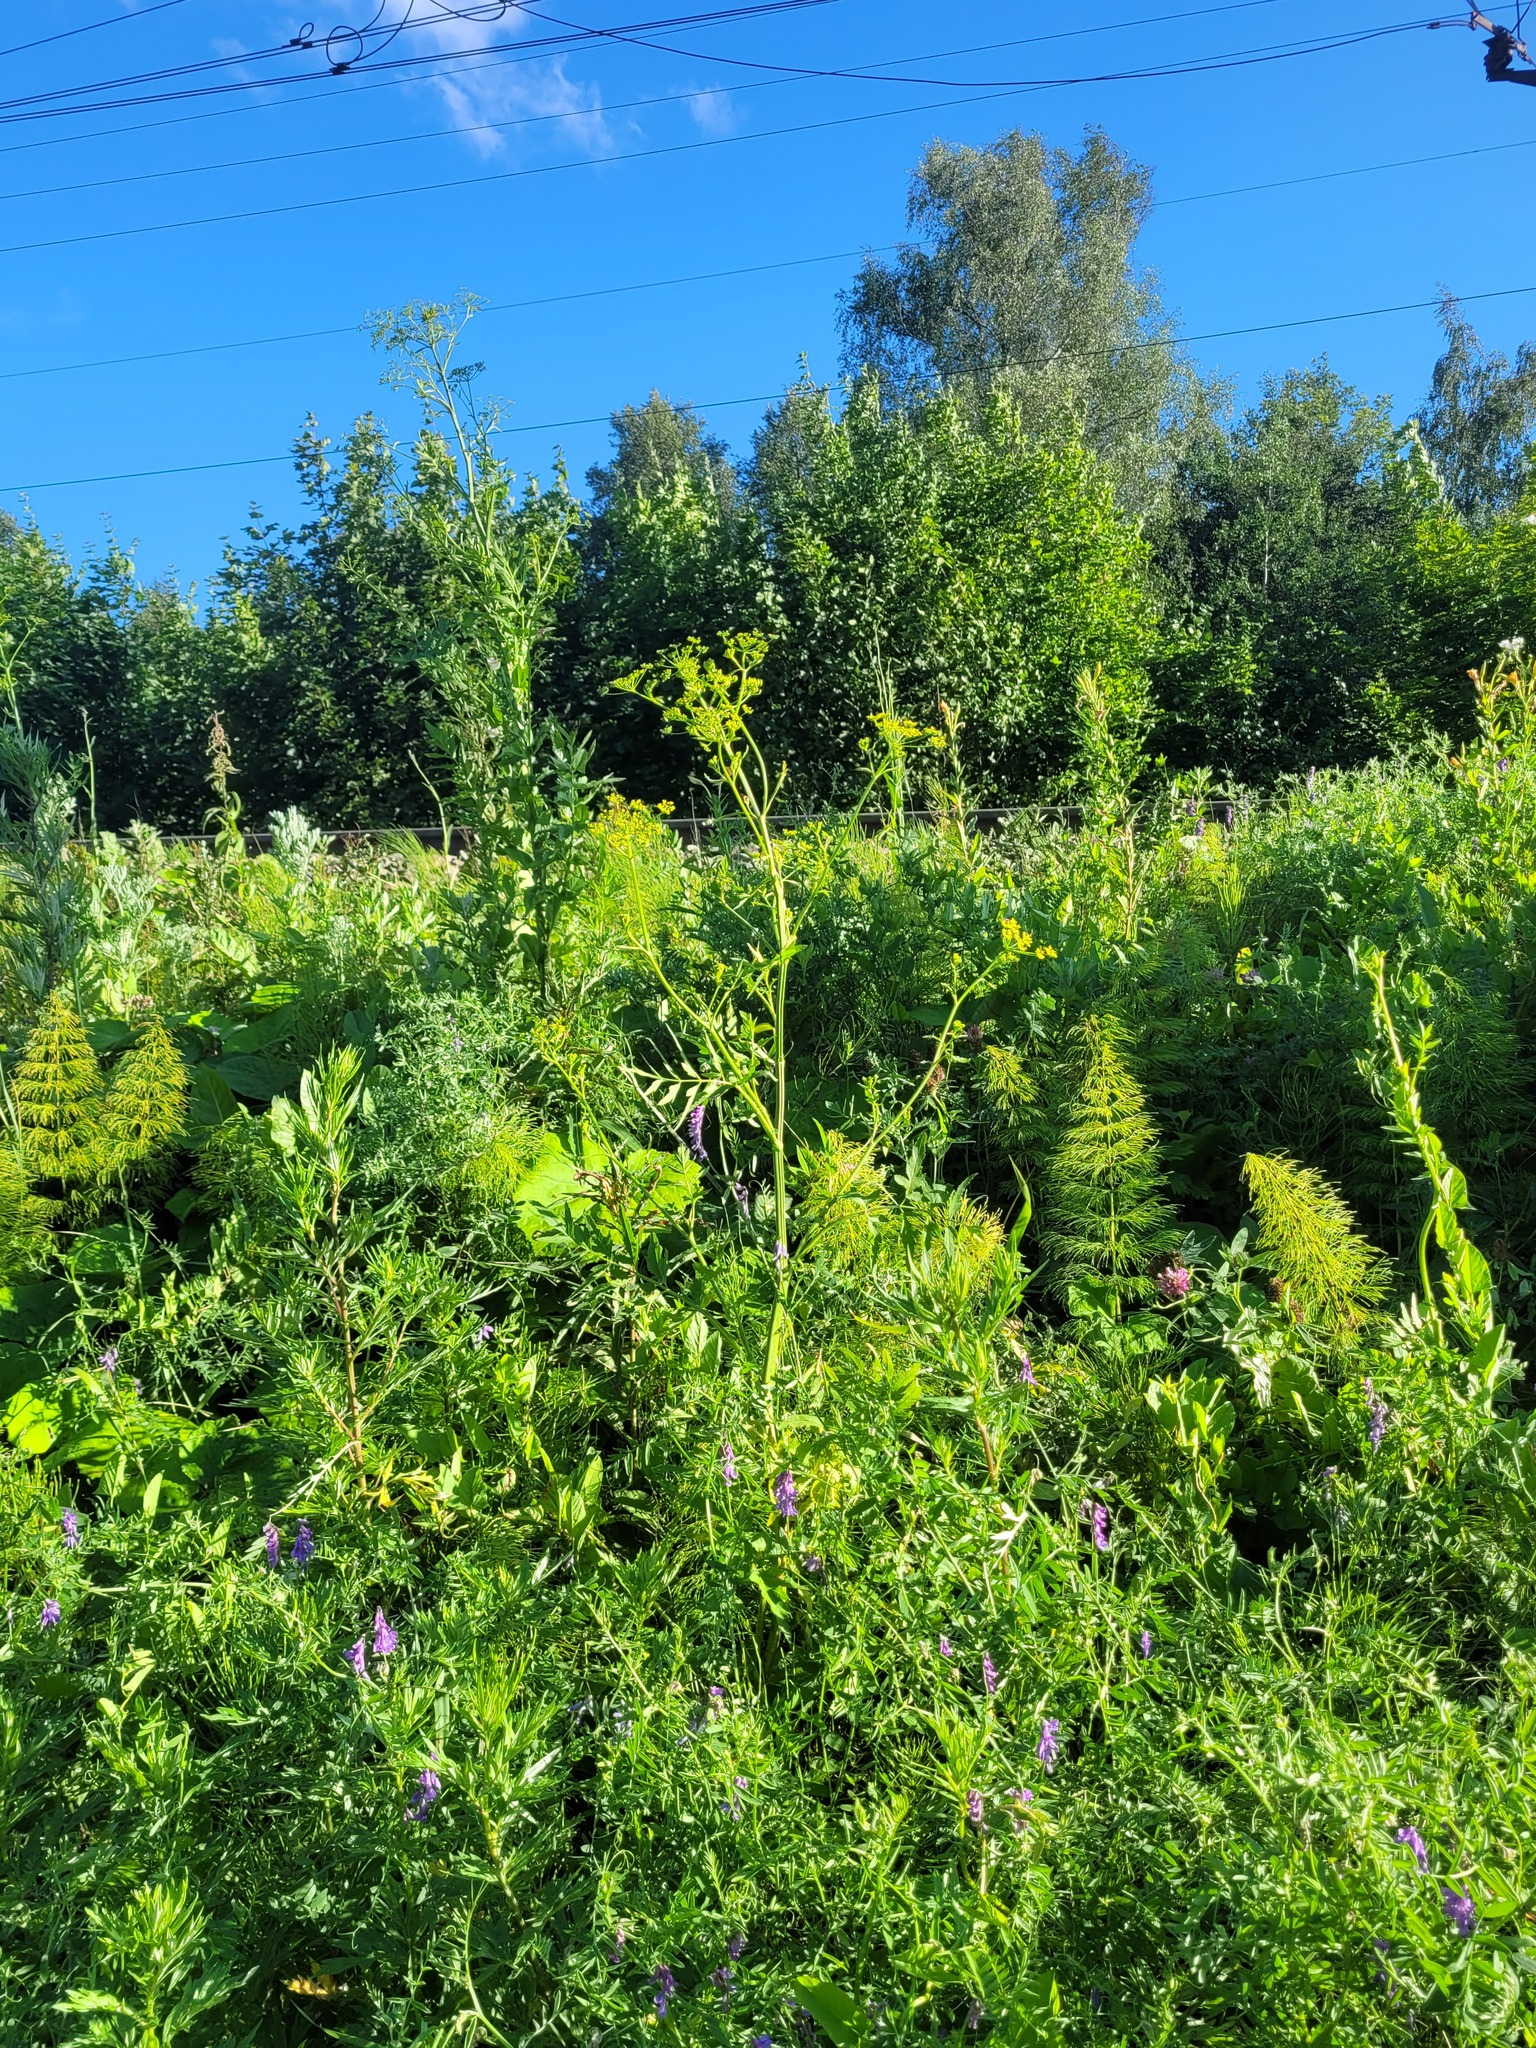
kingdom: Plantae
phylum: Tracheophyta
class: Magnoliopsida
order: Apiales
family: Apiaceae
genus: Pastinaca
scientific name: Pastinaca sativa
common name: Wild parsnip
